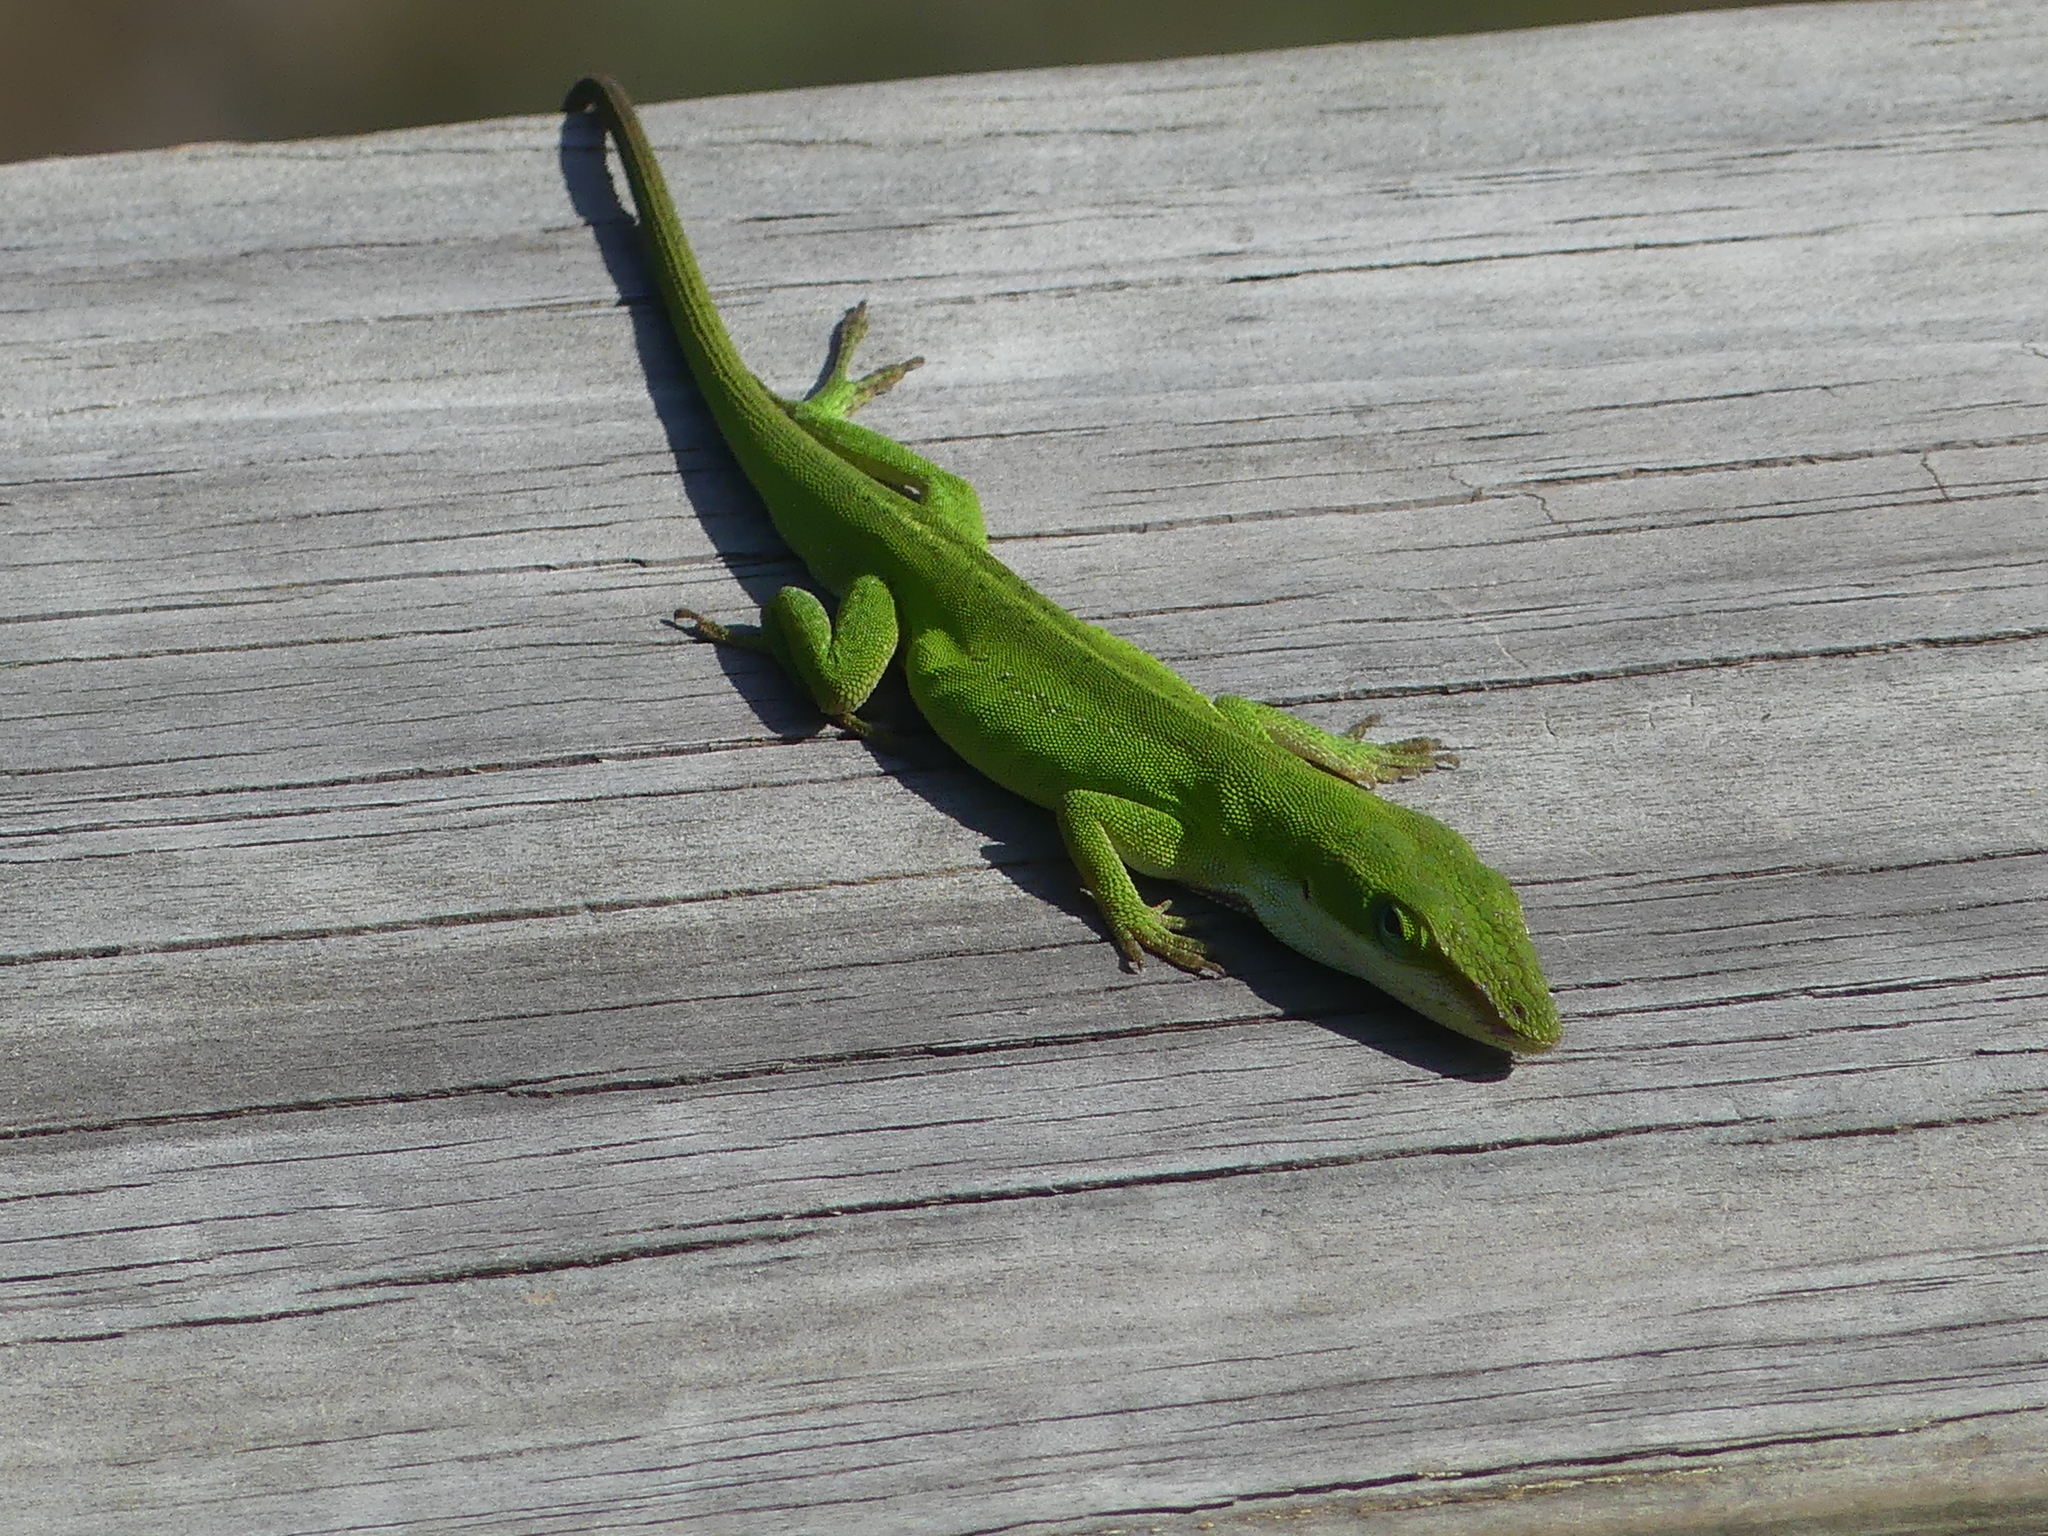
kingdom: Animalia
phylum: Chordata
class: Squamata
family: Dactyloidae
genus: Anolis
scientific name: Anolis carolinensis
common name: Green anole
